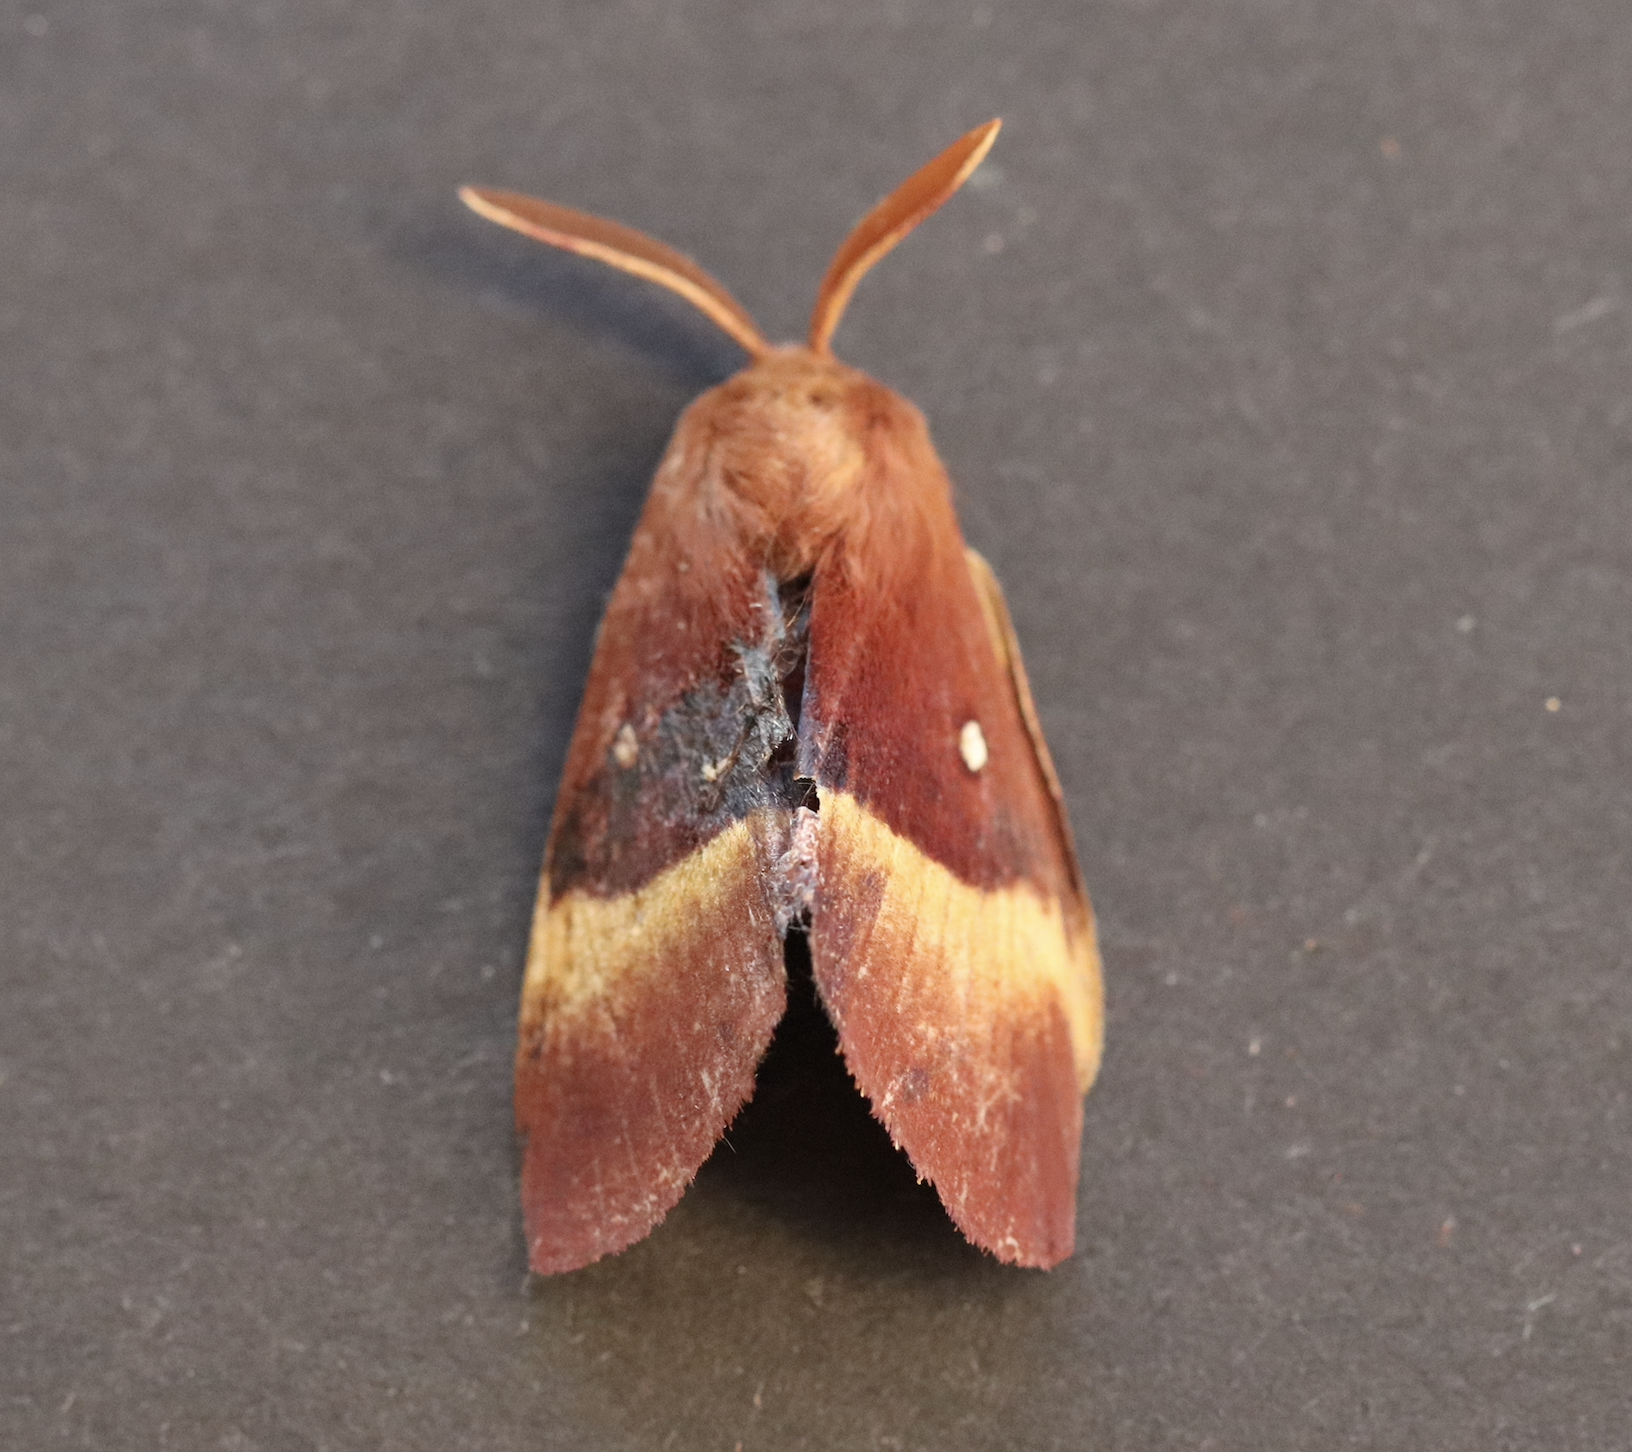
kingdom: Animalia
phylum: Arthropoda
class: Insecta
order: Lepidoptera
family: Lasiocampidae
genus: Lasiocampa
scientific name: Lasiocampa quercus
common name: Oak eggar
